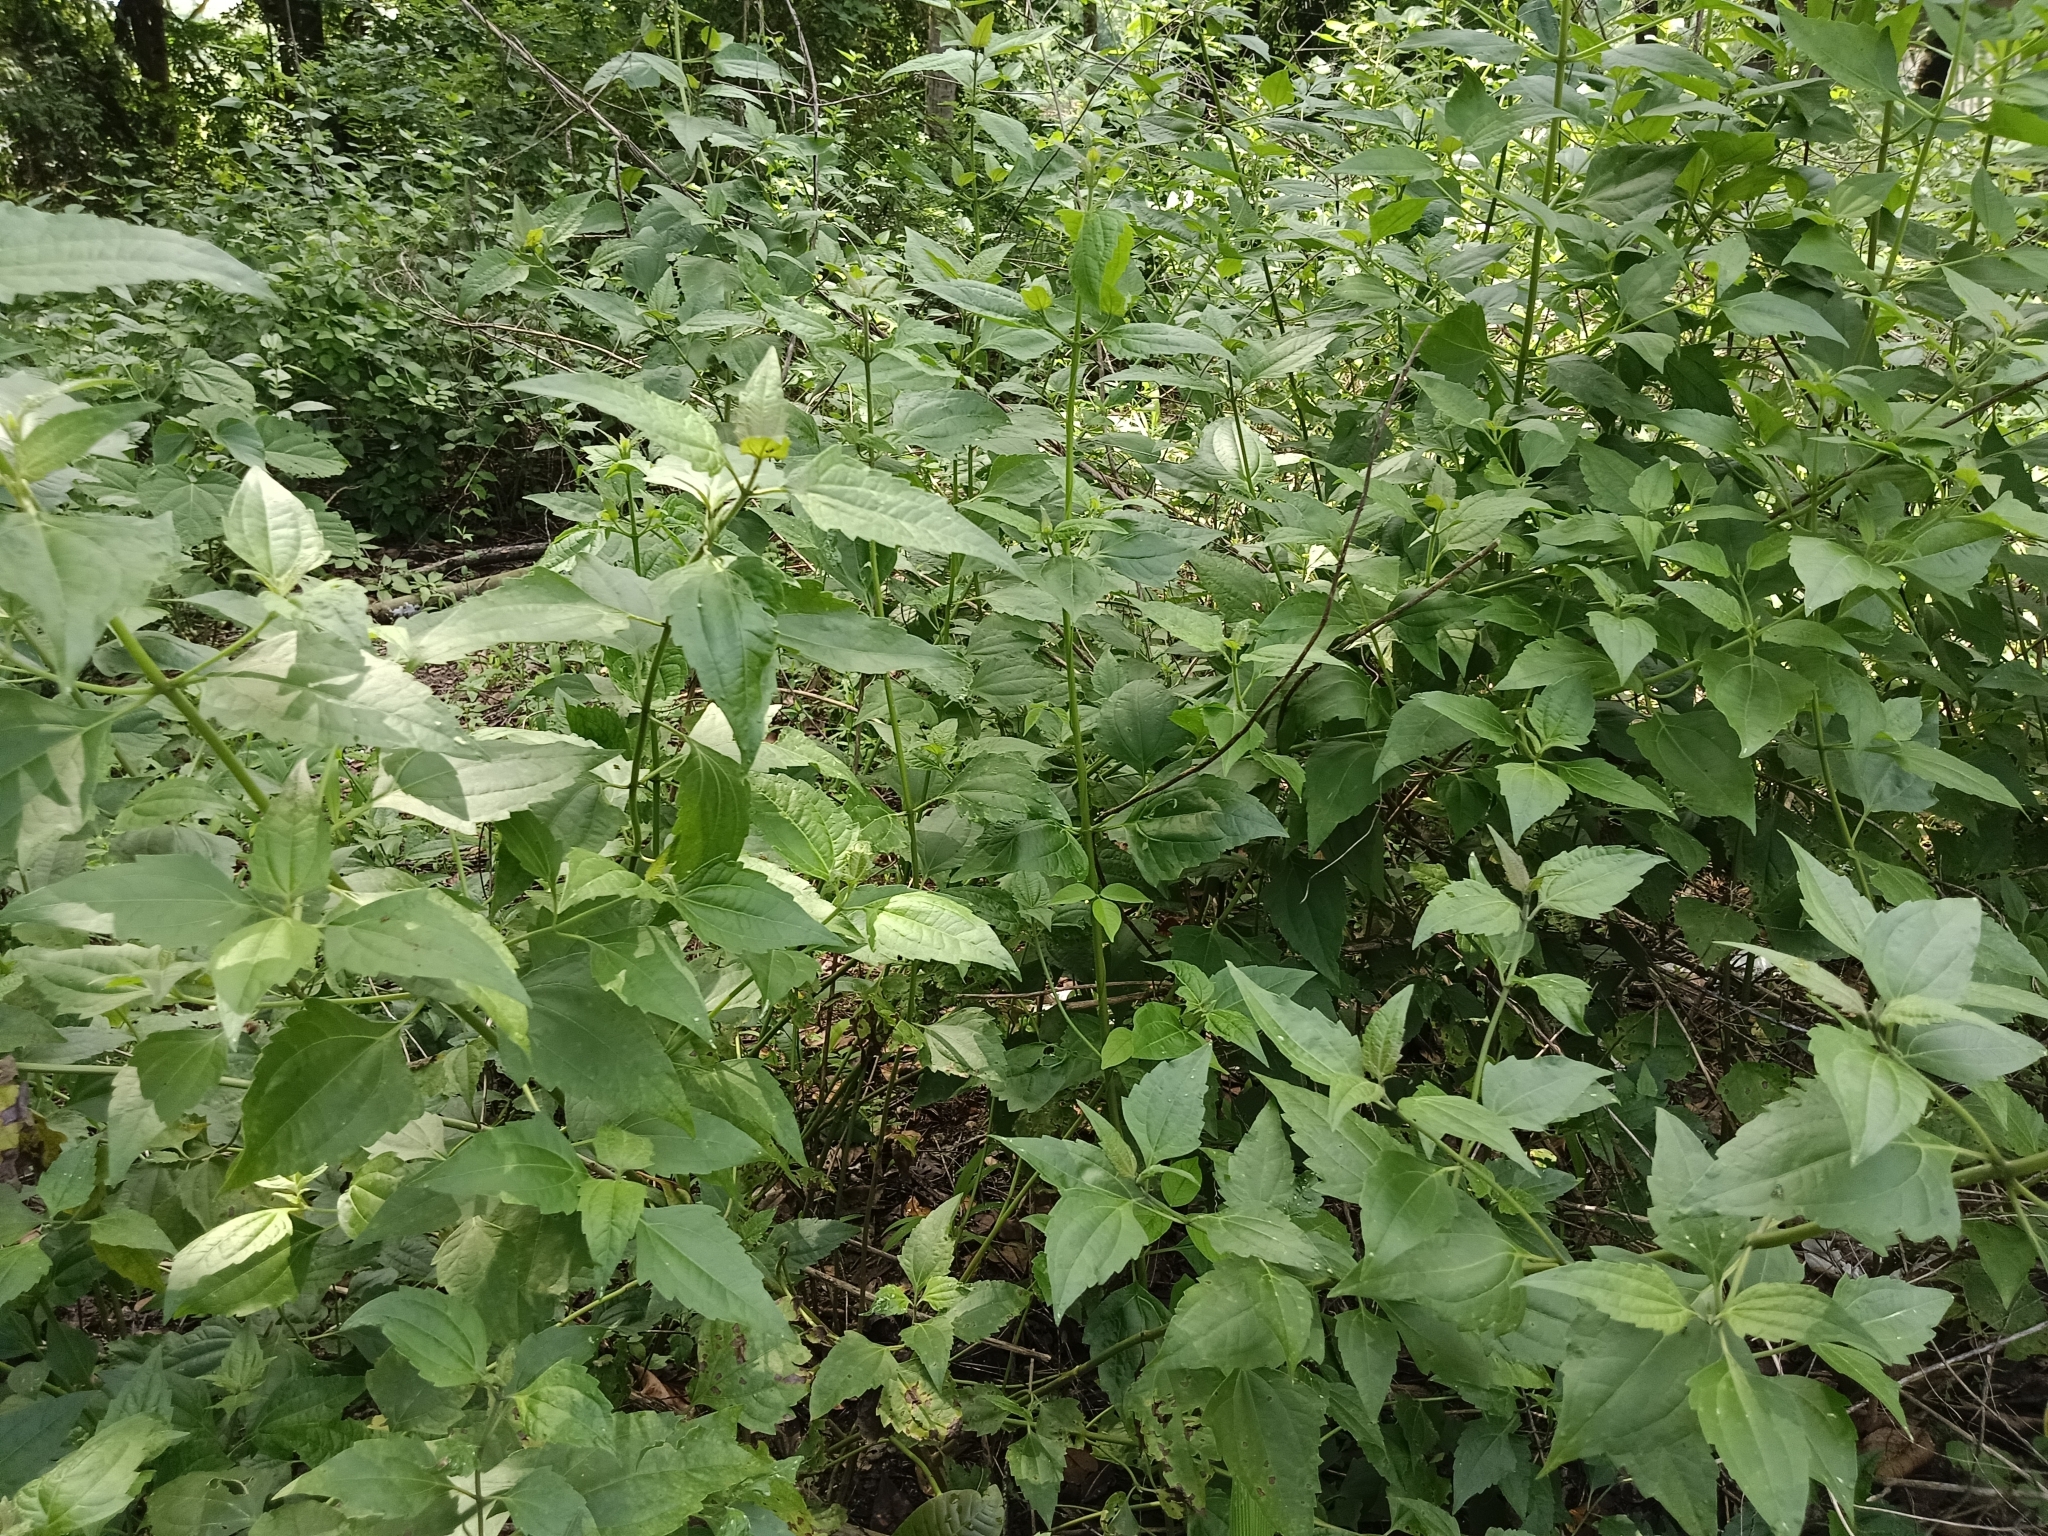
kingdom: Plantae
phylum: Tracheophyta
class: Magnoliopsida
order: Asterales
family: Asteraceae
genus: Chromolaena
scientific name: Chromolaena odorata
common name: Siamweed
